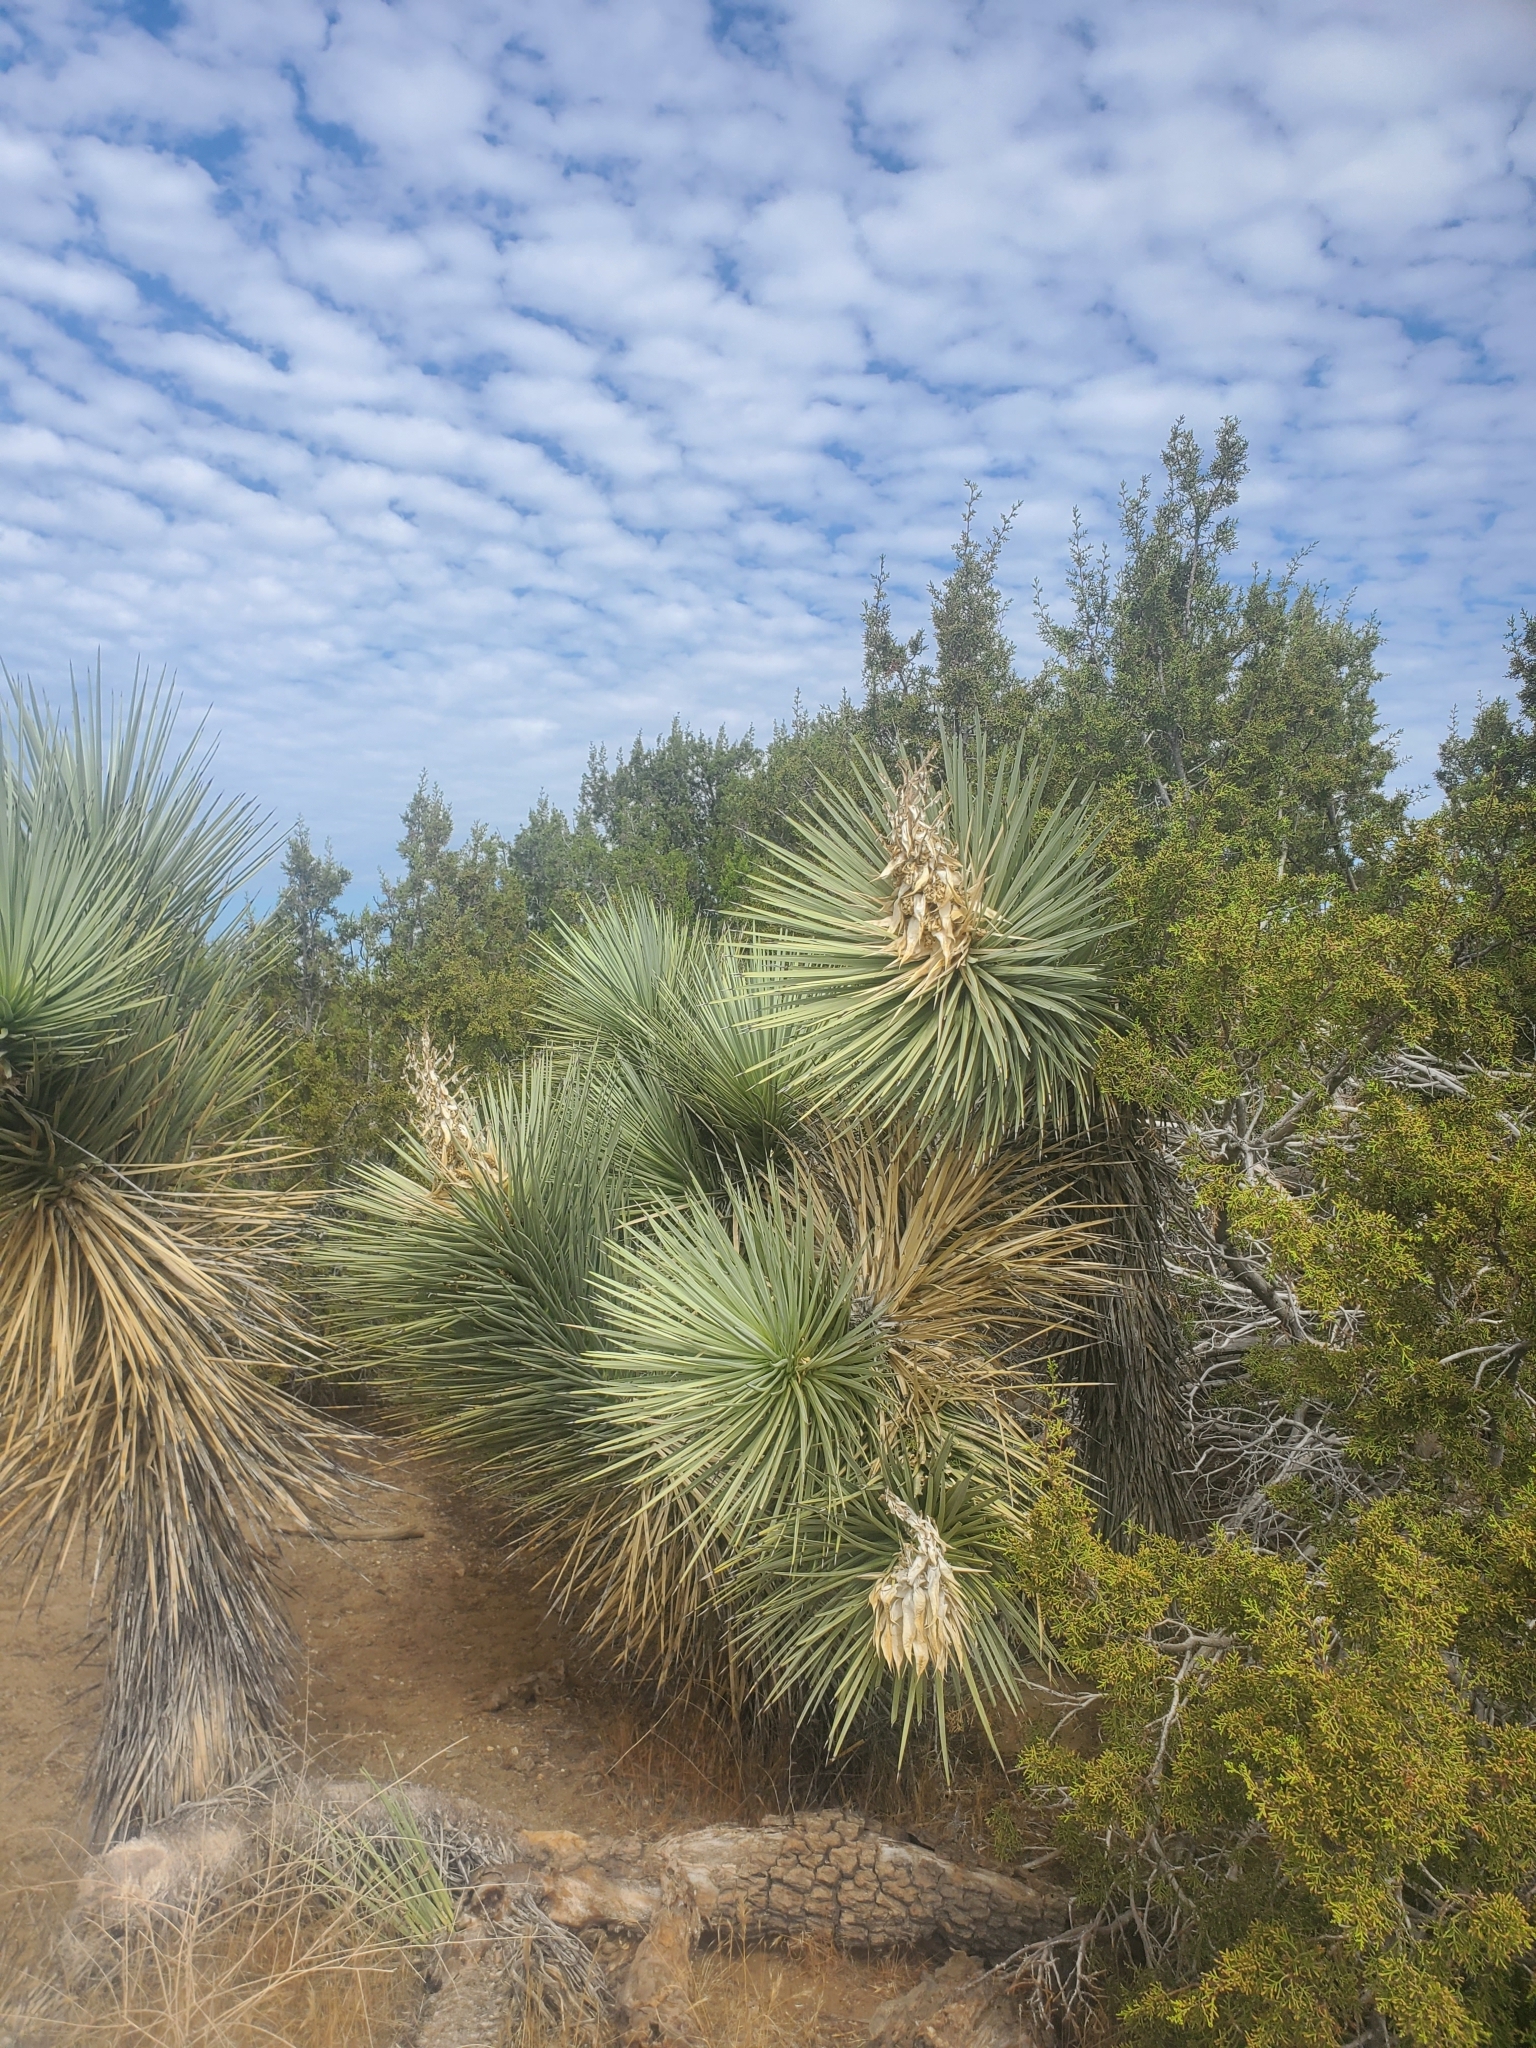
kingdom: Plantae
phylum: Tracheophyta
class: Liliopsida
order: Asparagales
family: Asparagaceae
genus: Yucca
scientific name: Yucca brevifolia
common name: Joshua tree
